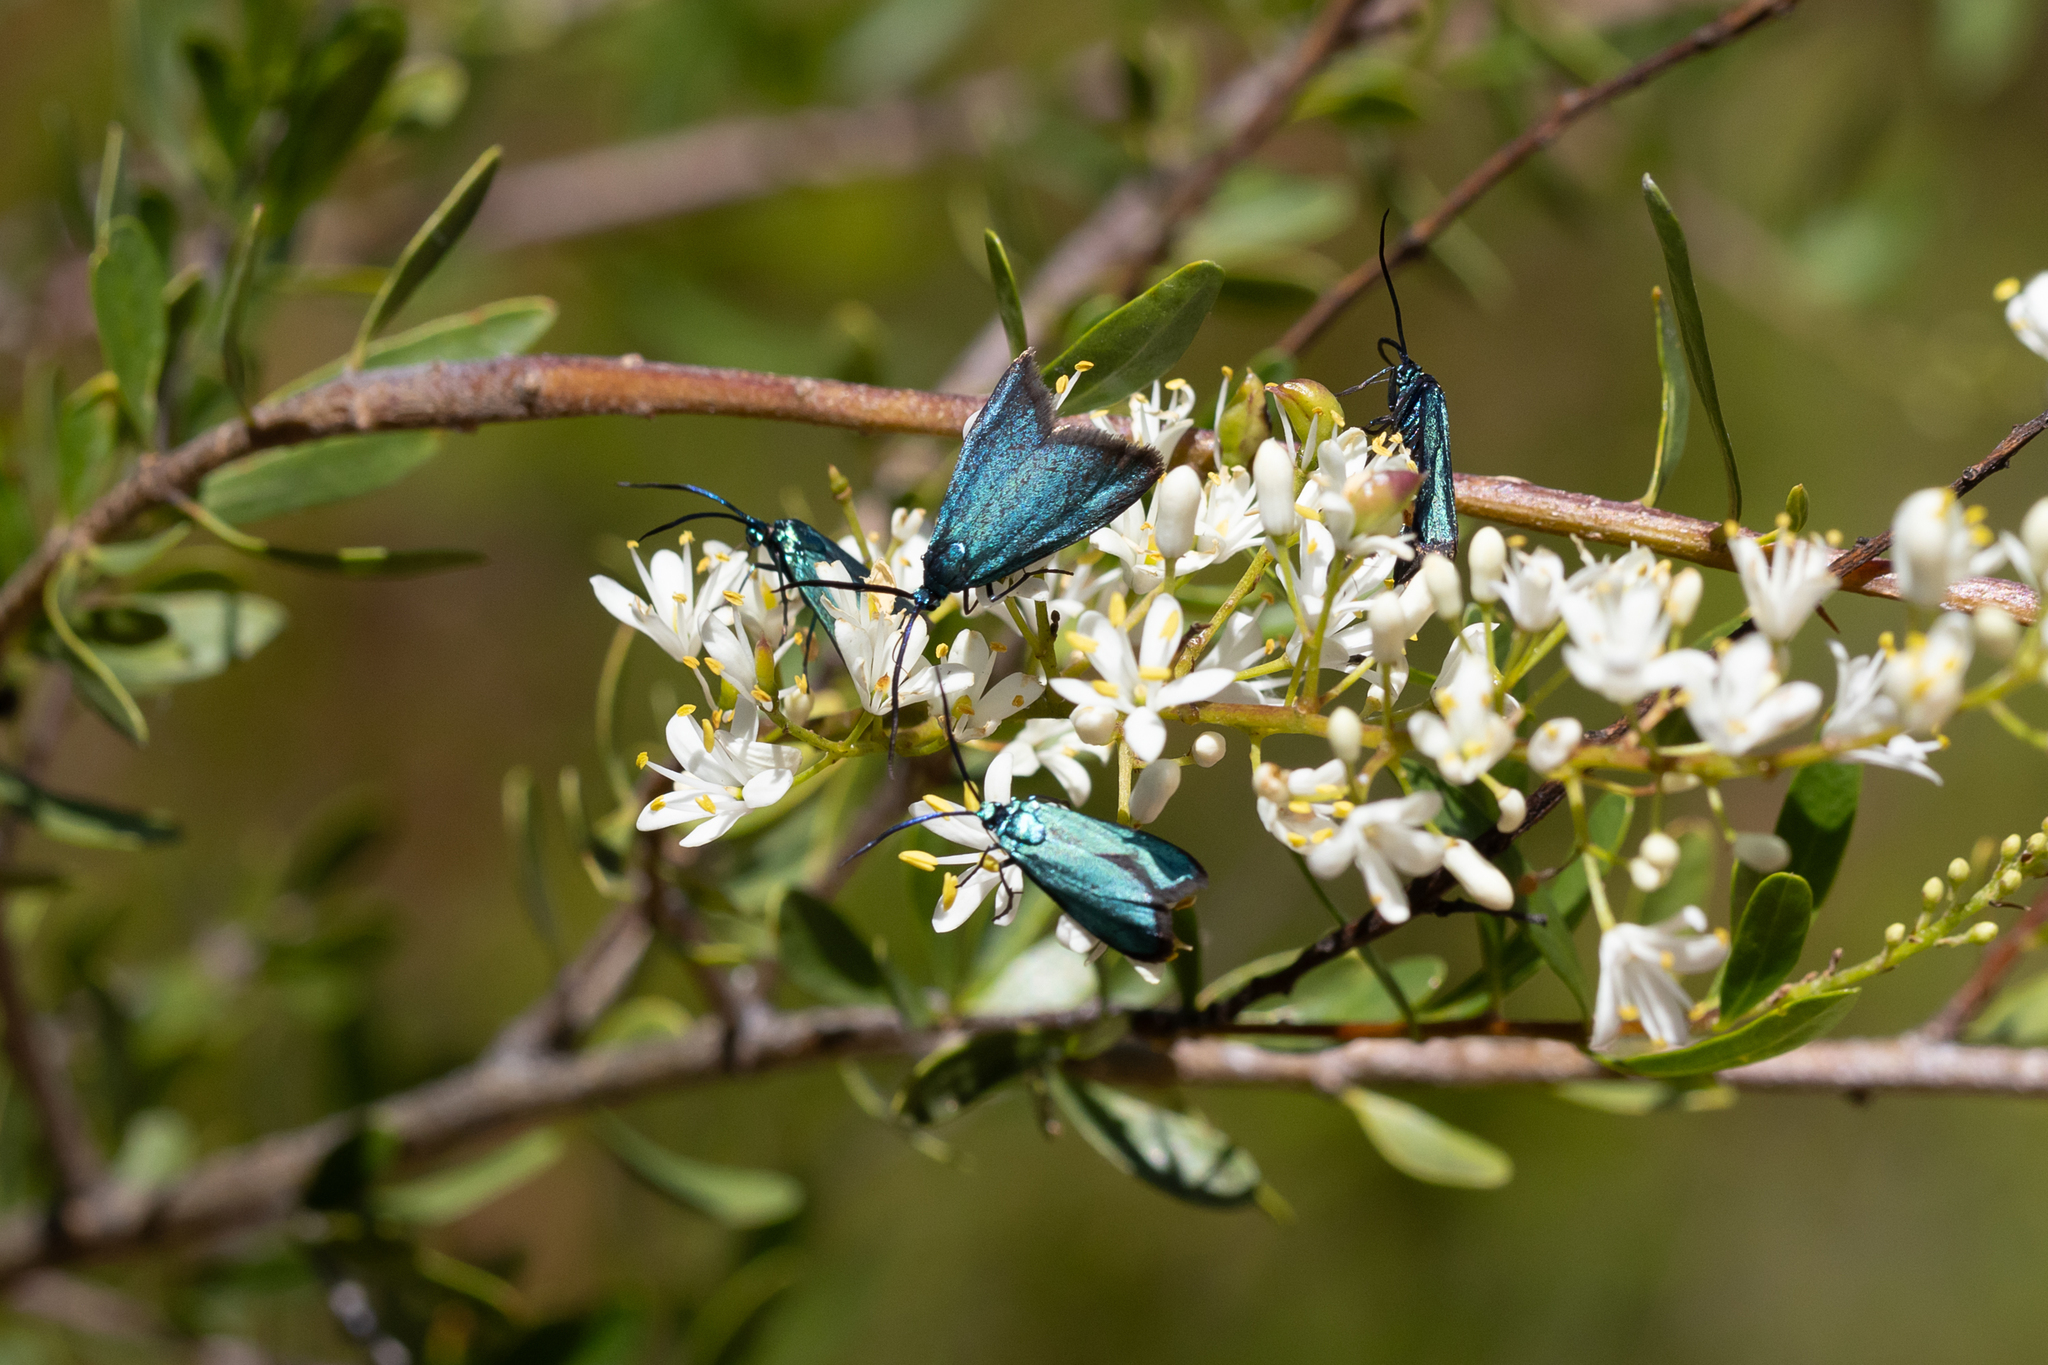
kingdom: Animalia
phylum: Arthropoda
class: Insecta
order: Lepidoptera
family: Zygaenidae
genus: Pollanisus
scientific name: Pollanisus viridipulverulenta
